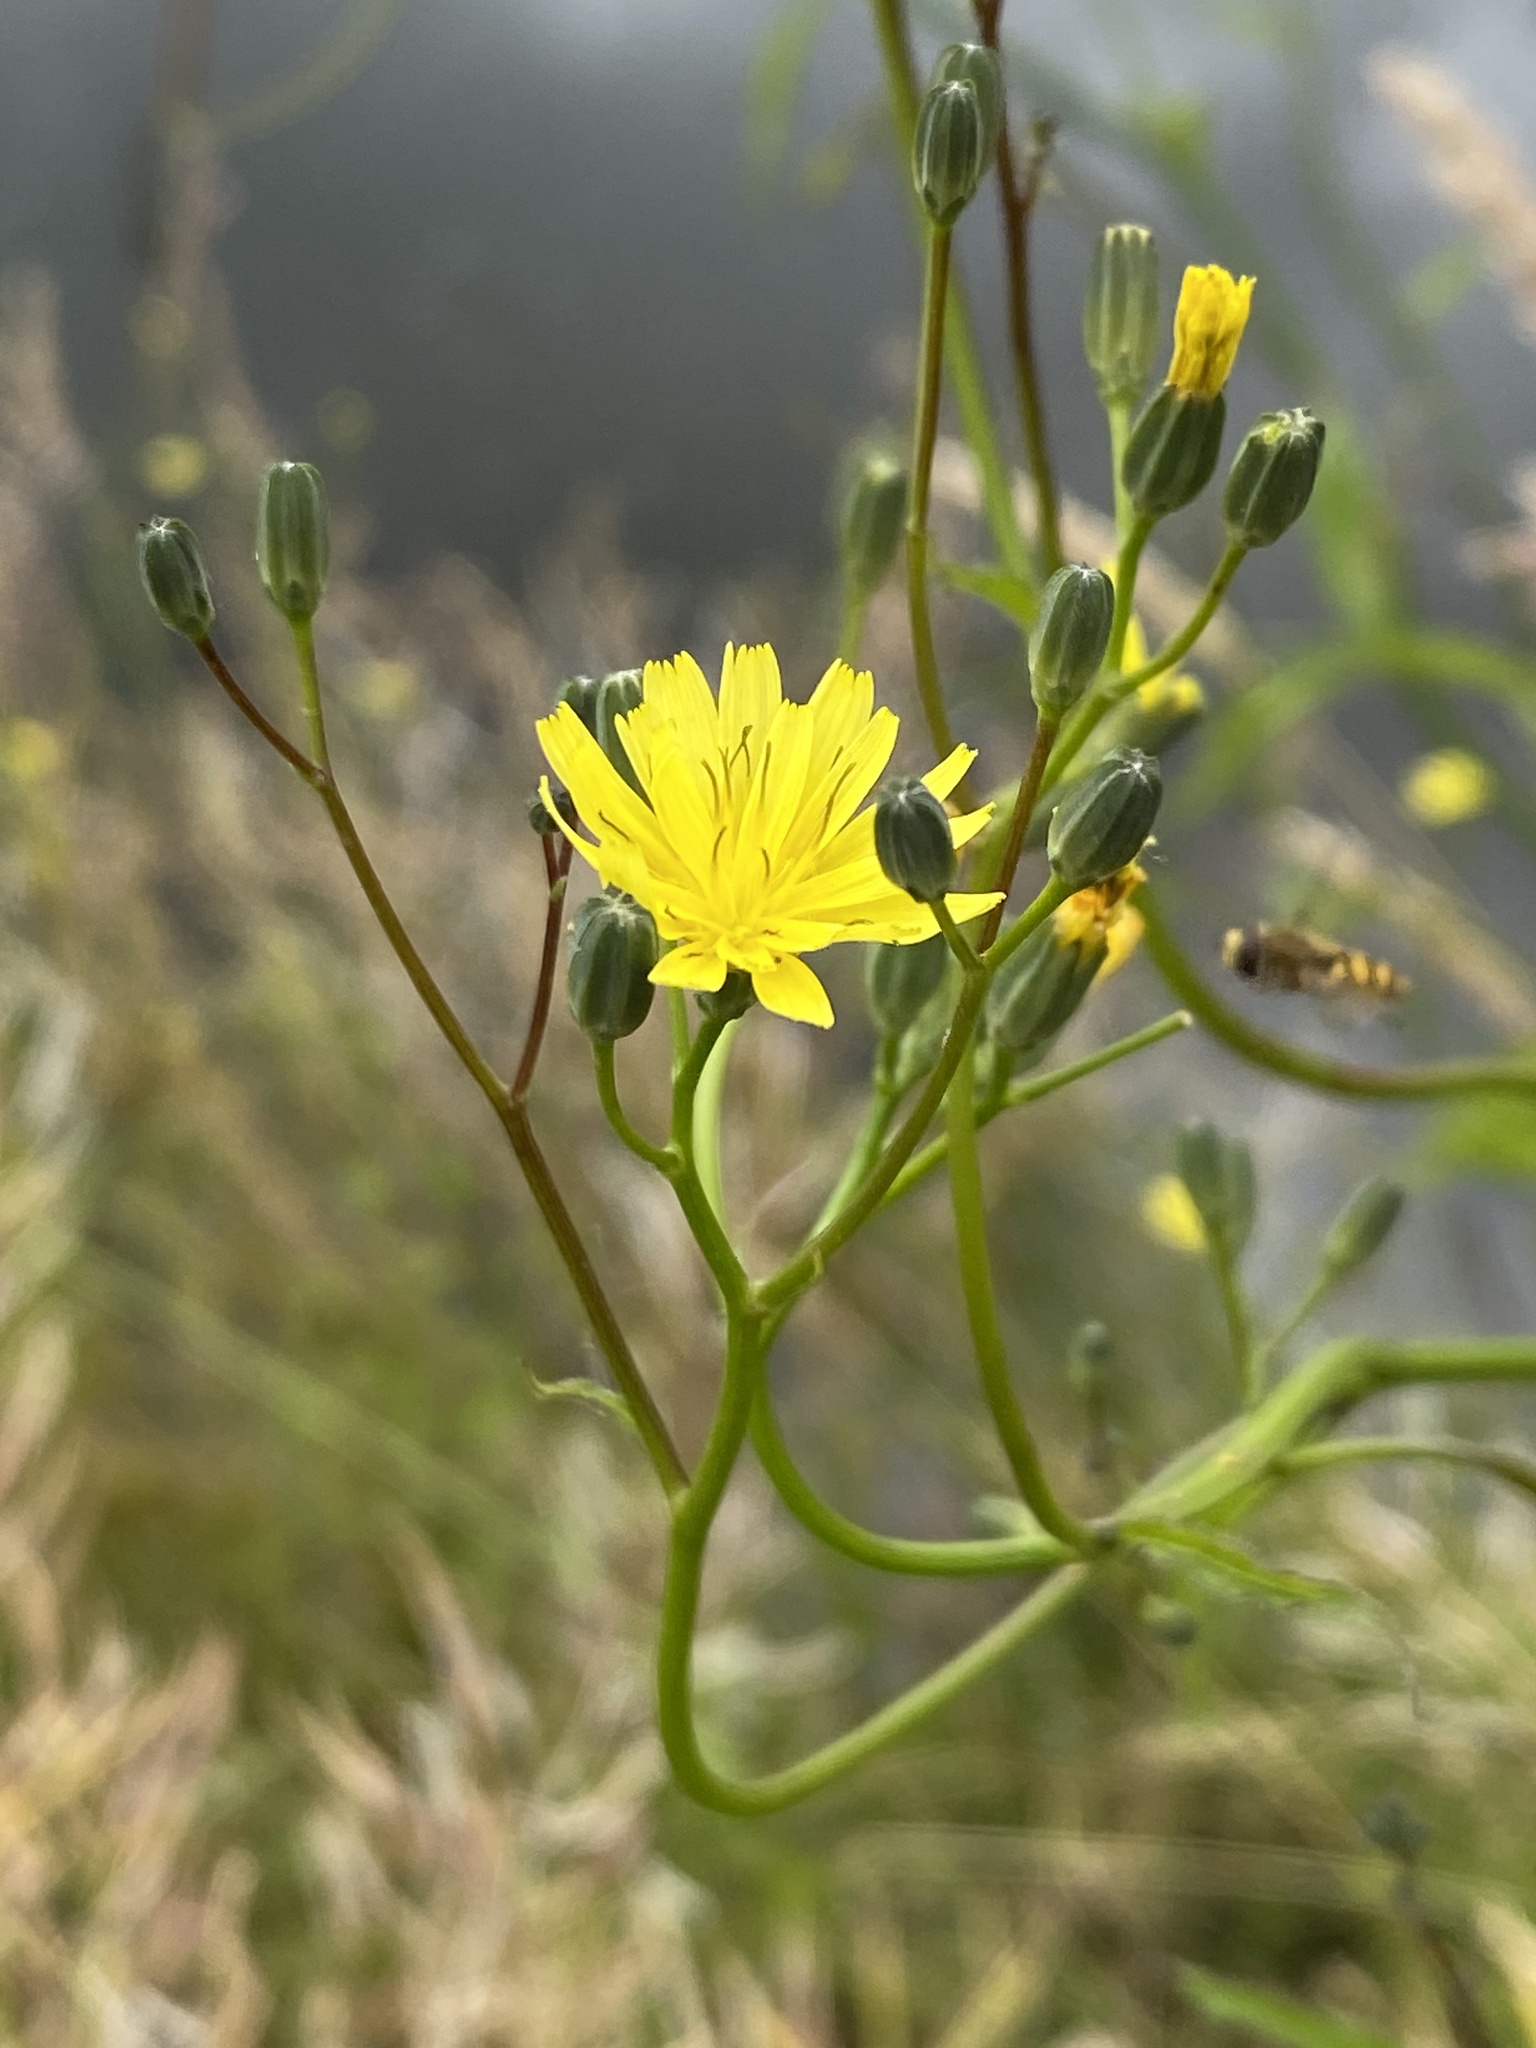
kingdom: Plantae
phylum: Tracheophyta
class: Magnoliopsida
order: Asterales
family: Asteraceae
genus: Lapsana
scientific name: Lapsana communis
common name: Nipplewort
